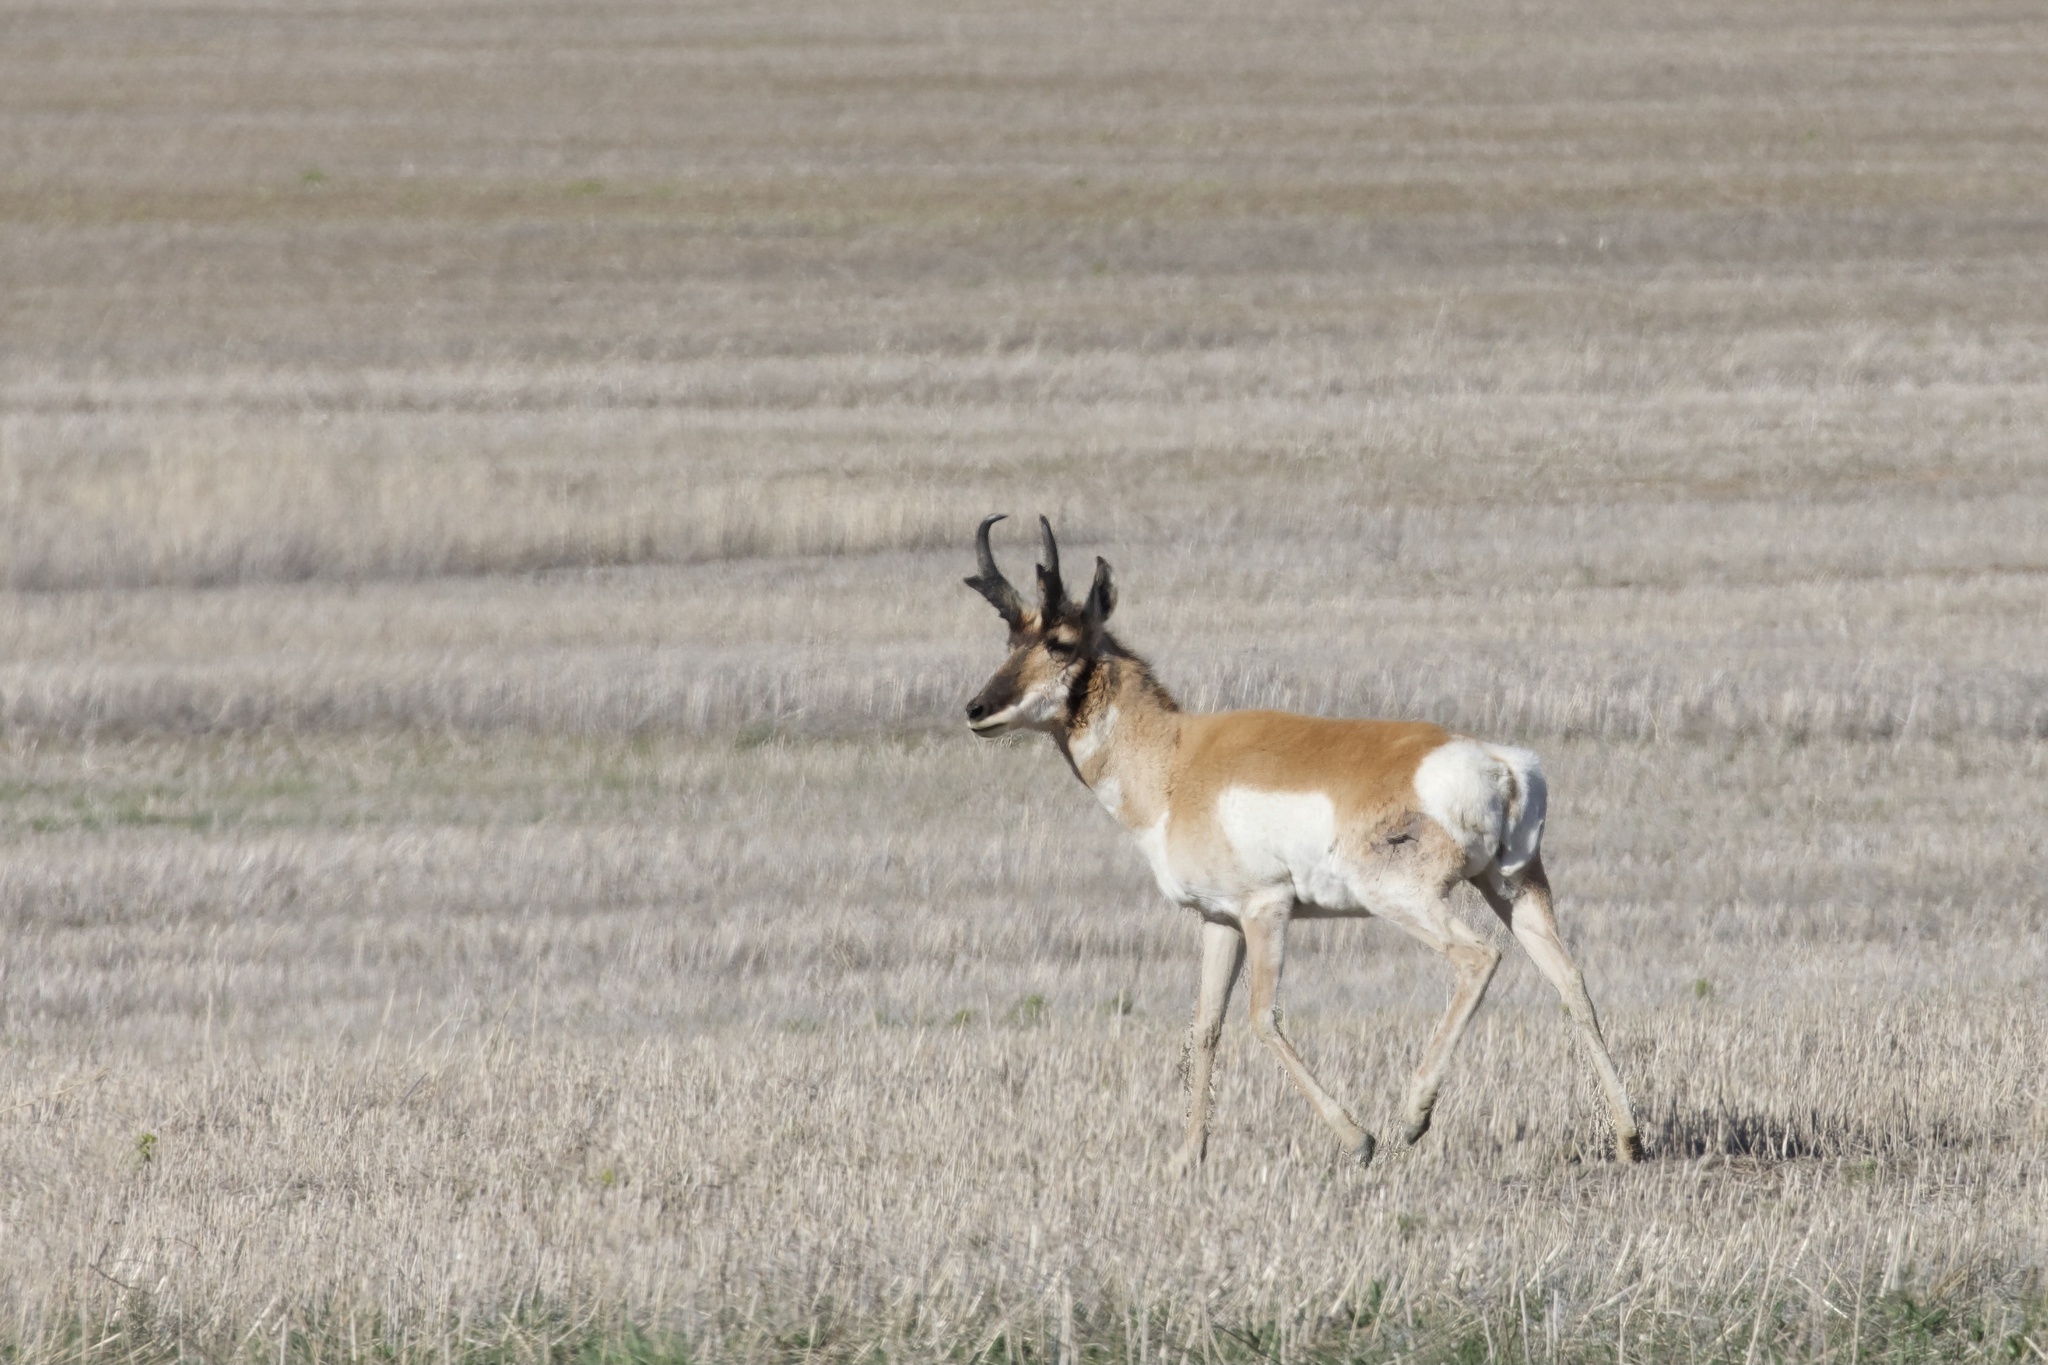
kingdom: Animalia
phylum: Chordata
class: Mammalia
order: Artiodactyla
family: Antilocapridae
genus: Antilocapra
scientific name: Antilocapra americana
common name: Pronghorn
